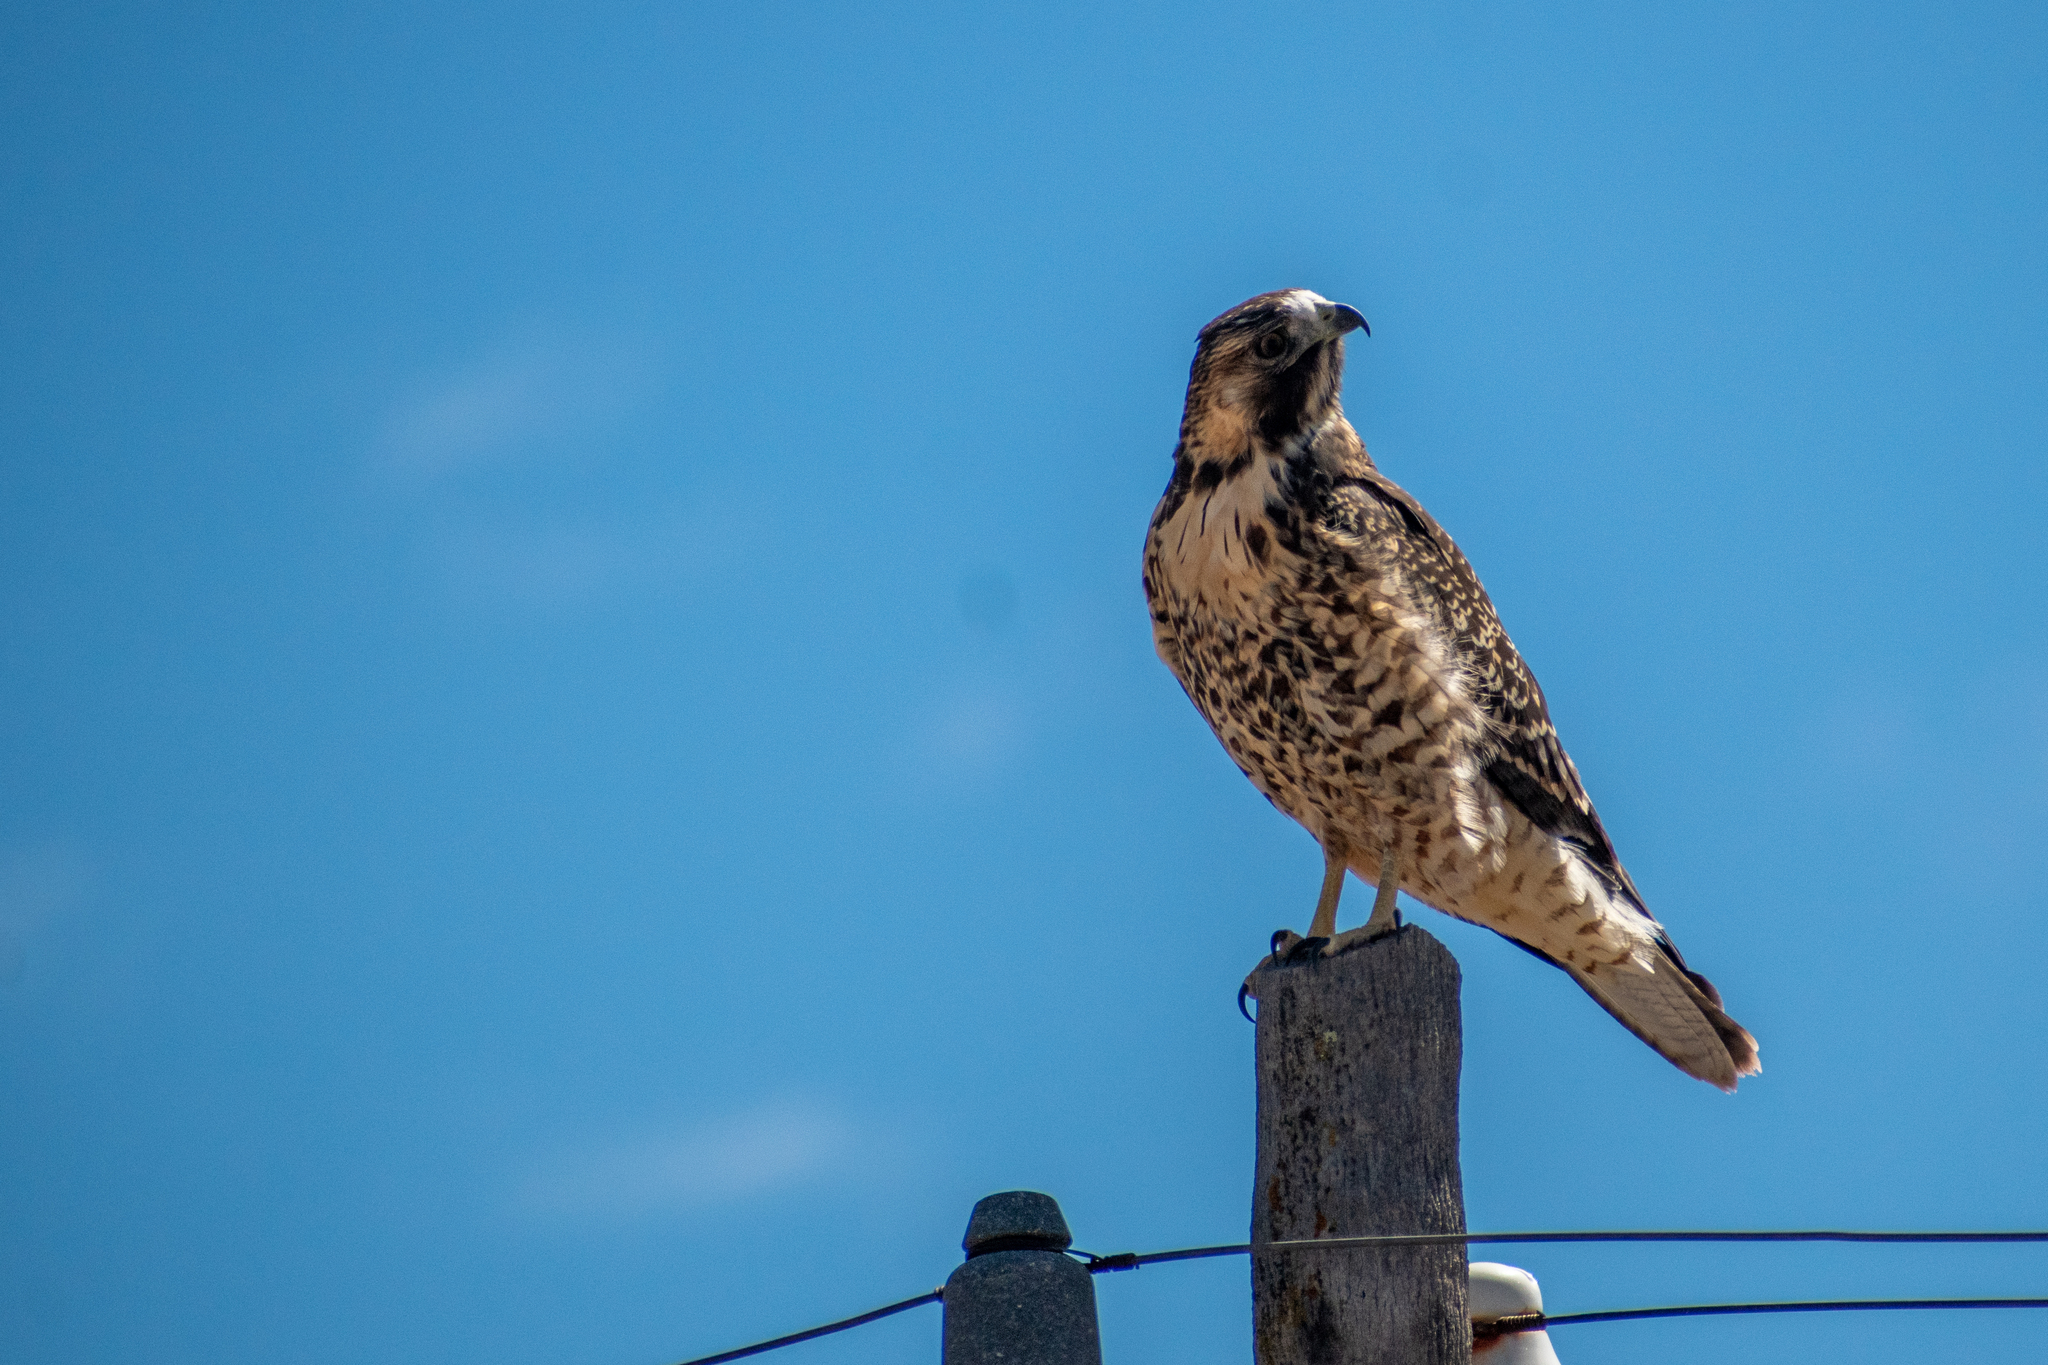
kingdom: Animalia
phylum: Chordata
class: Aves
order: Accipitriformes
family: Accipitridae
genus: Buteo
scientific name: Buteo polyosoma
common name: Variable hawk
